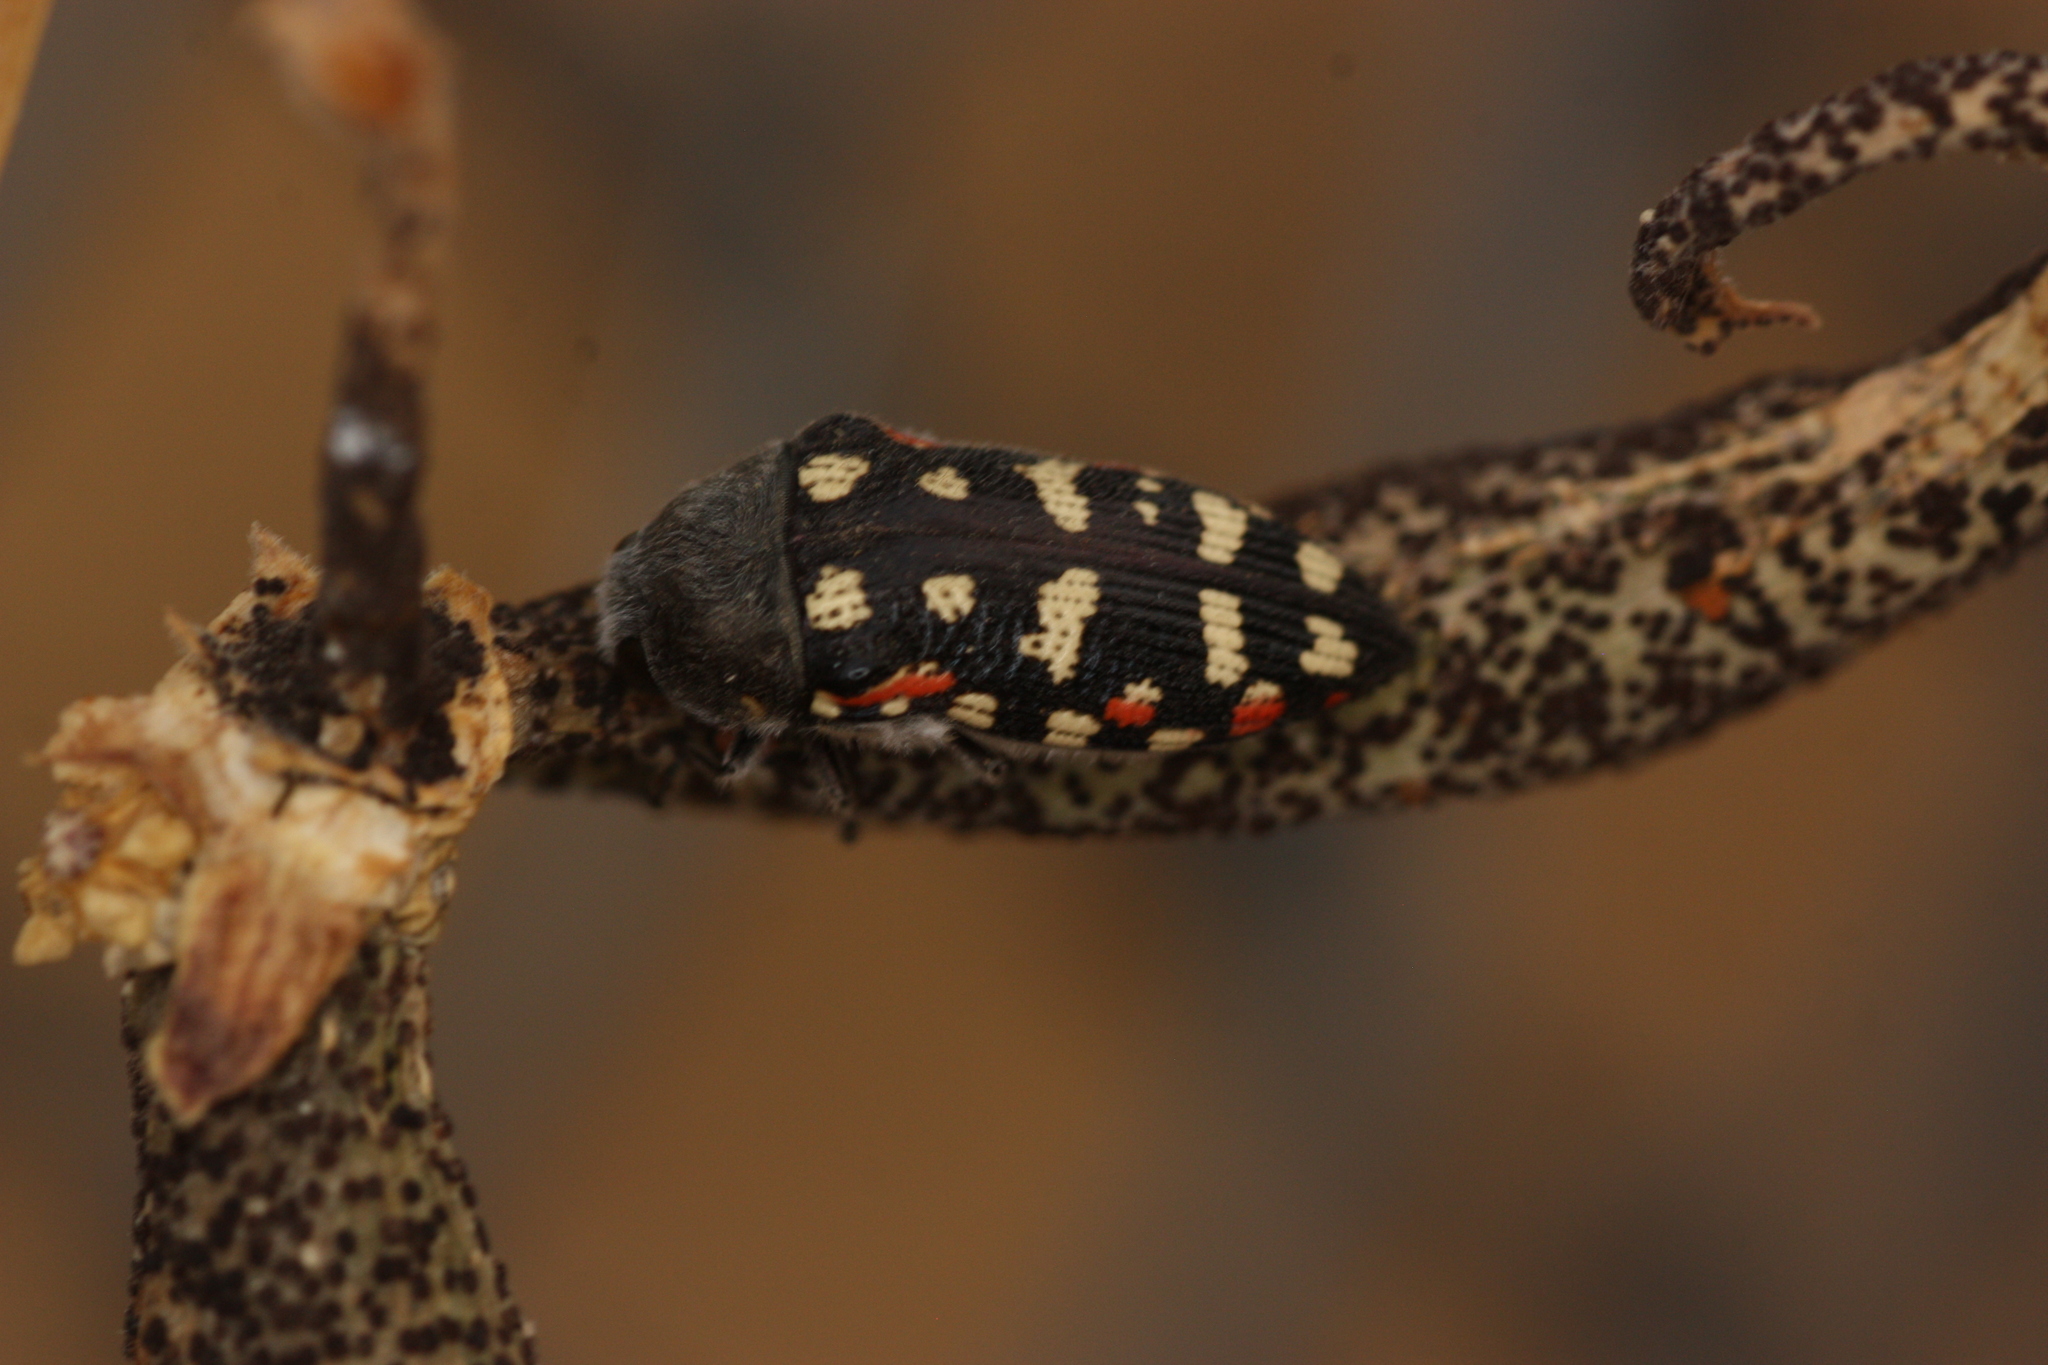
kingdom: Animalia
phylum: Arthropoda
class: Insecta
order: Coleoptera
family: Buprestidae
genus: Acmaeodera
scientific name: Acmaeodera gibbula
